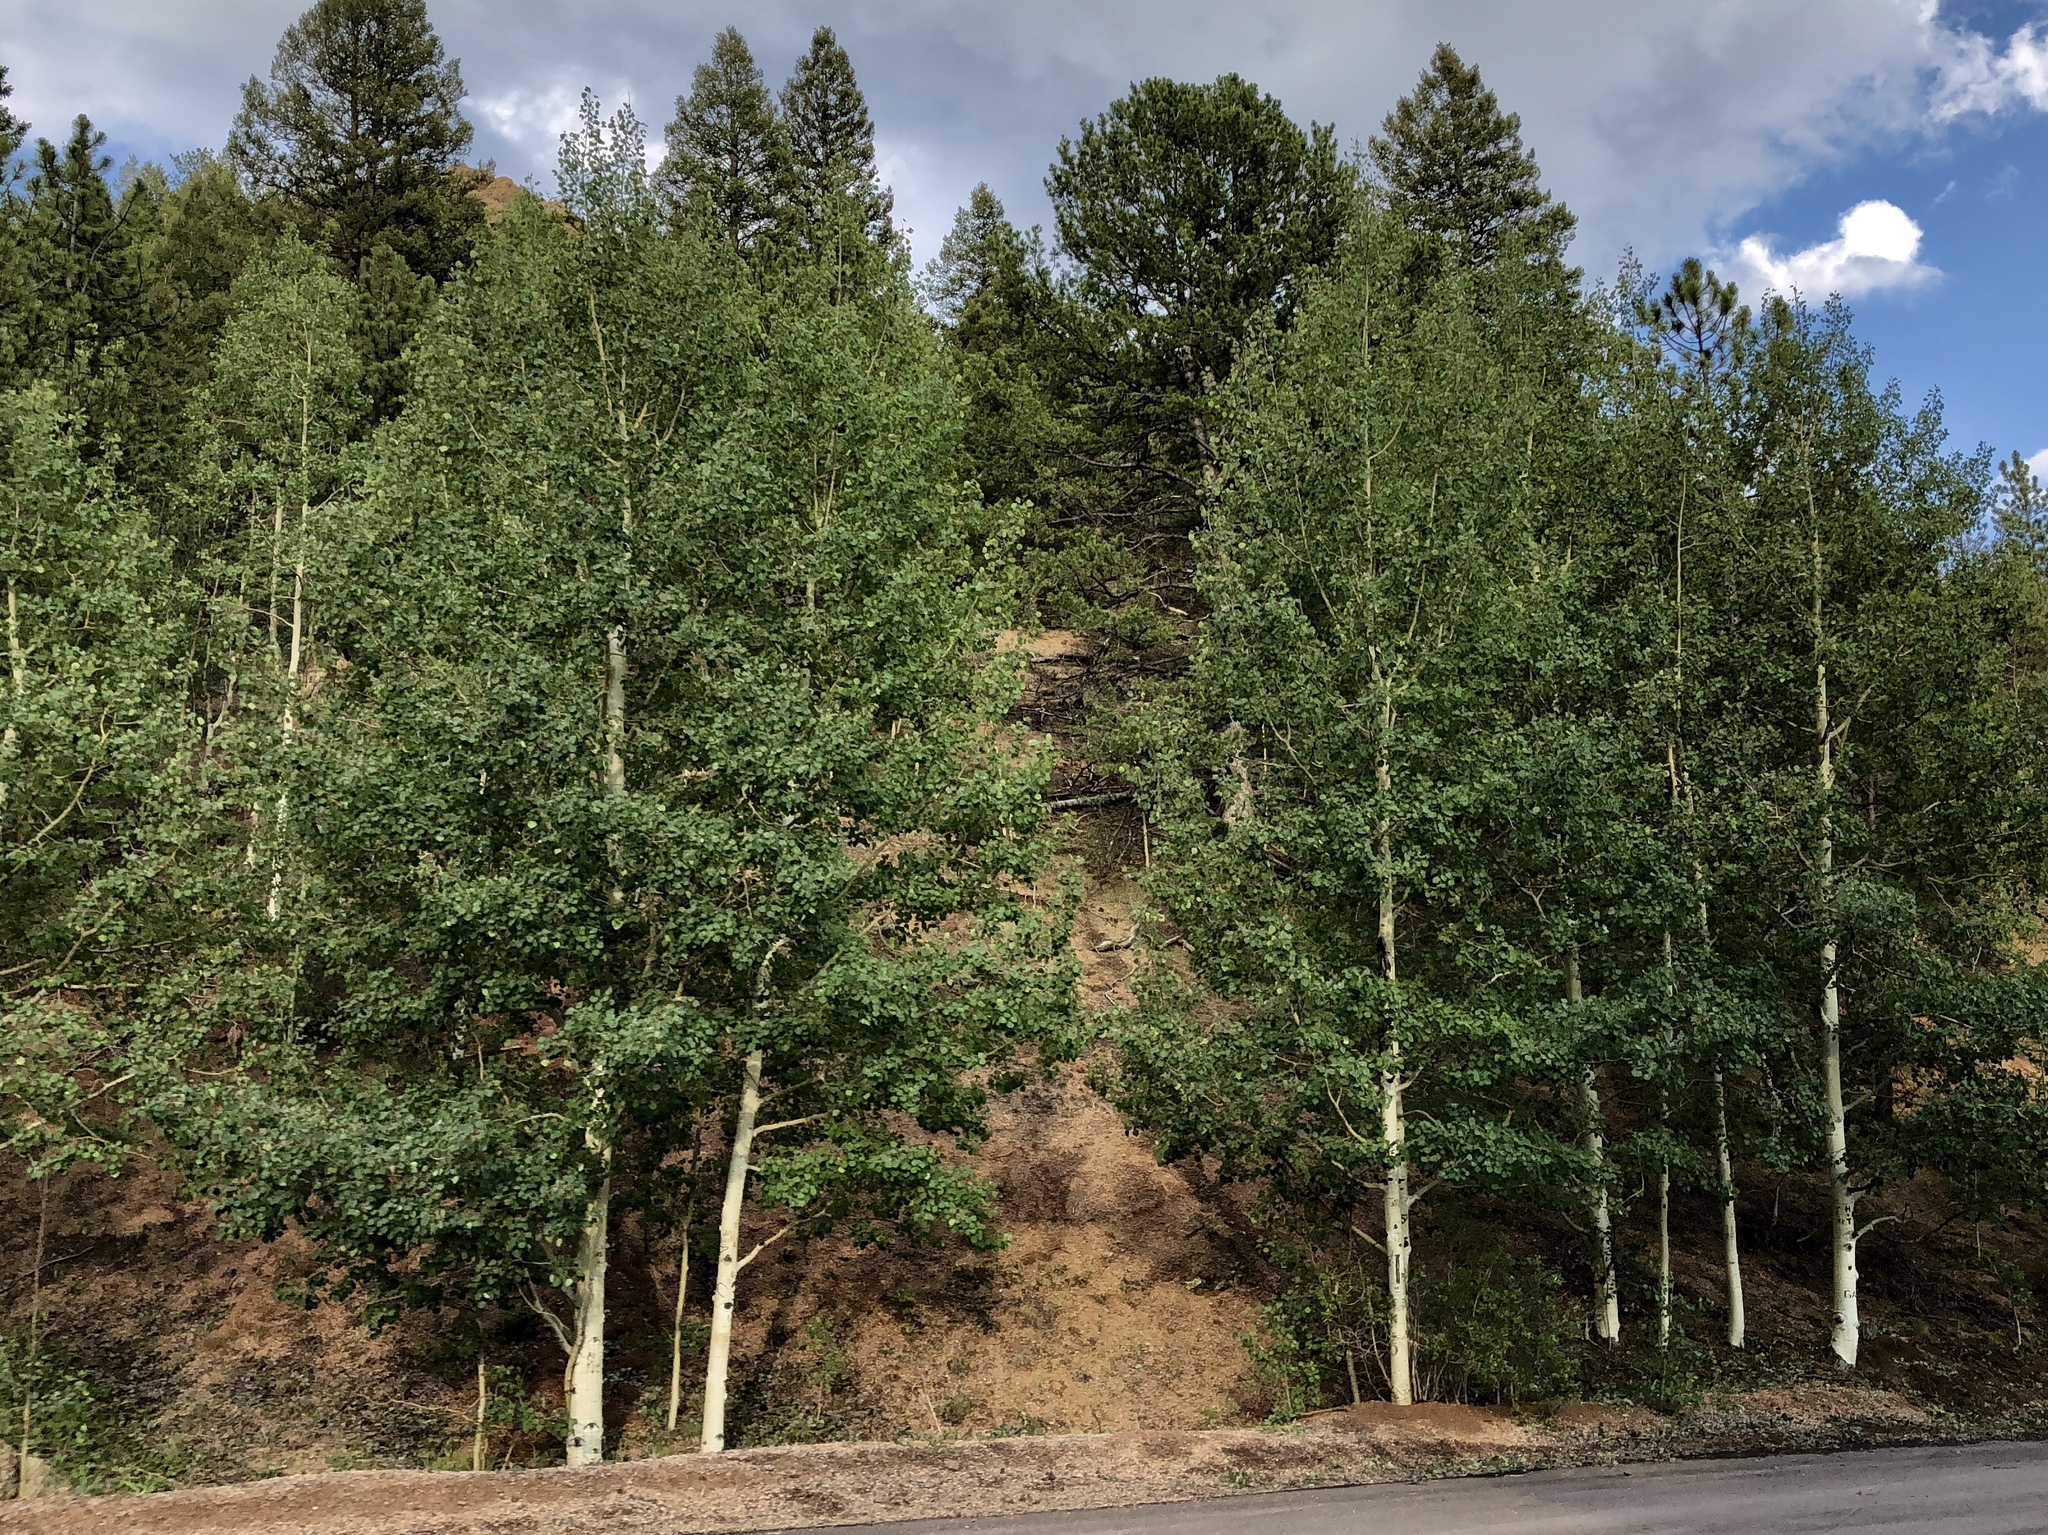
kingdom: Plantae
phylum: Tracheophyta
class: Magnoliopsida
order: Malpighiales
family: Salicaceae
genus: Populus
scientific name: Populus tremuloides
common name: Quaking aspen
